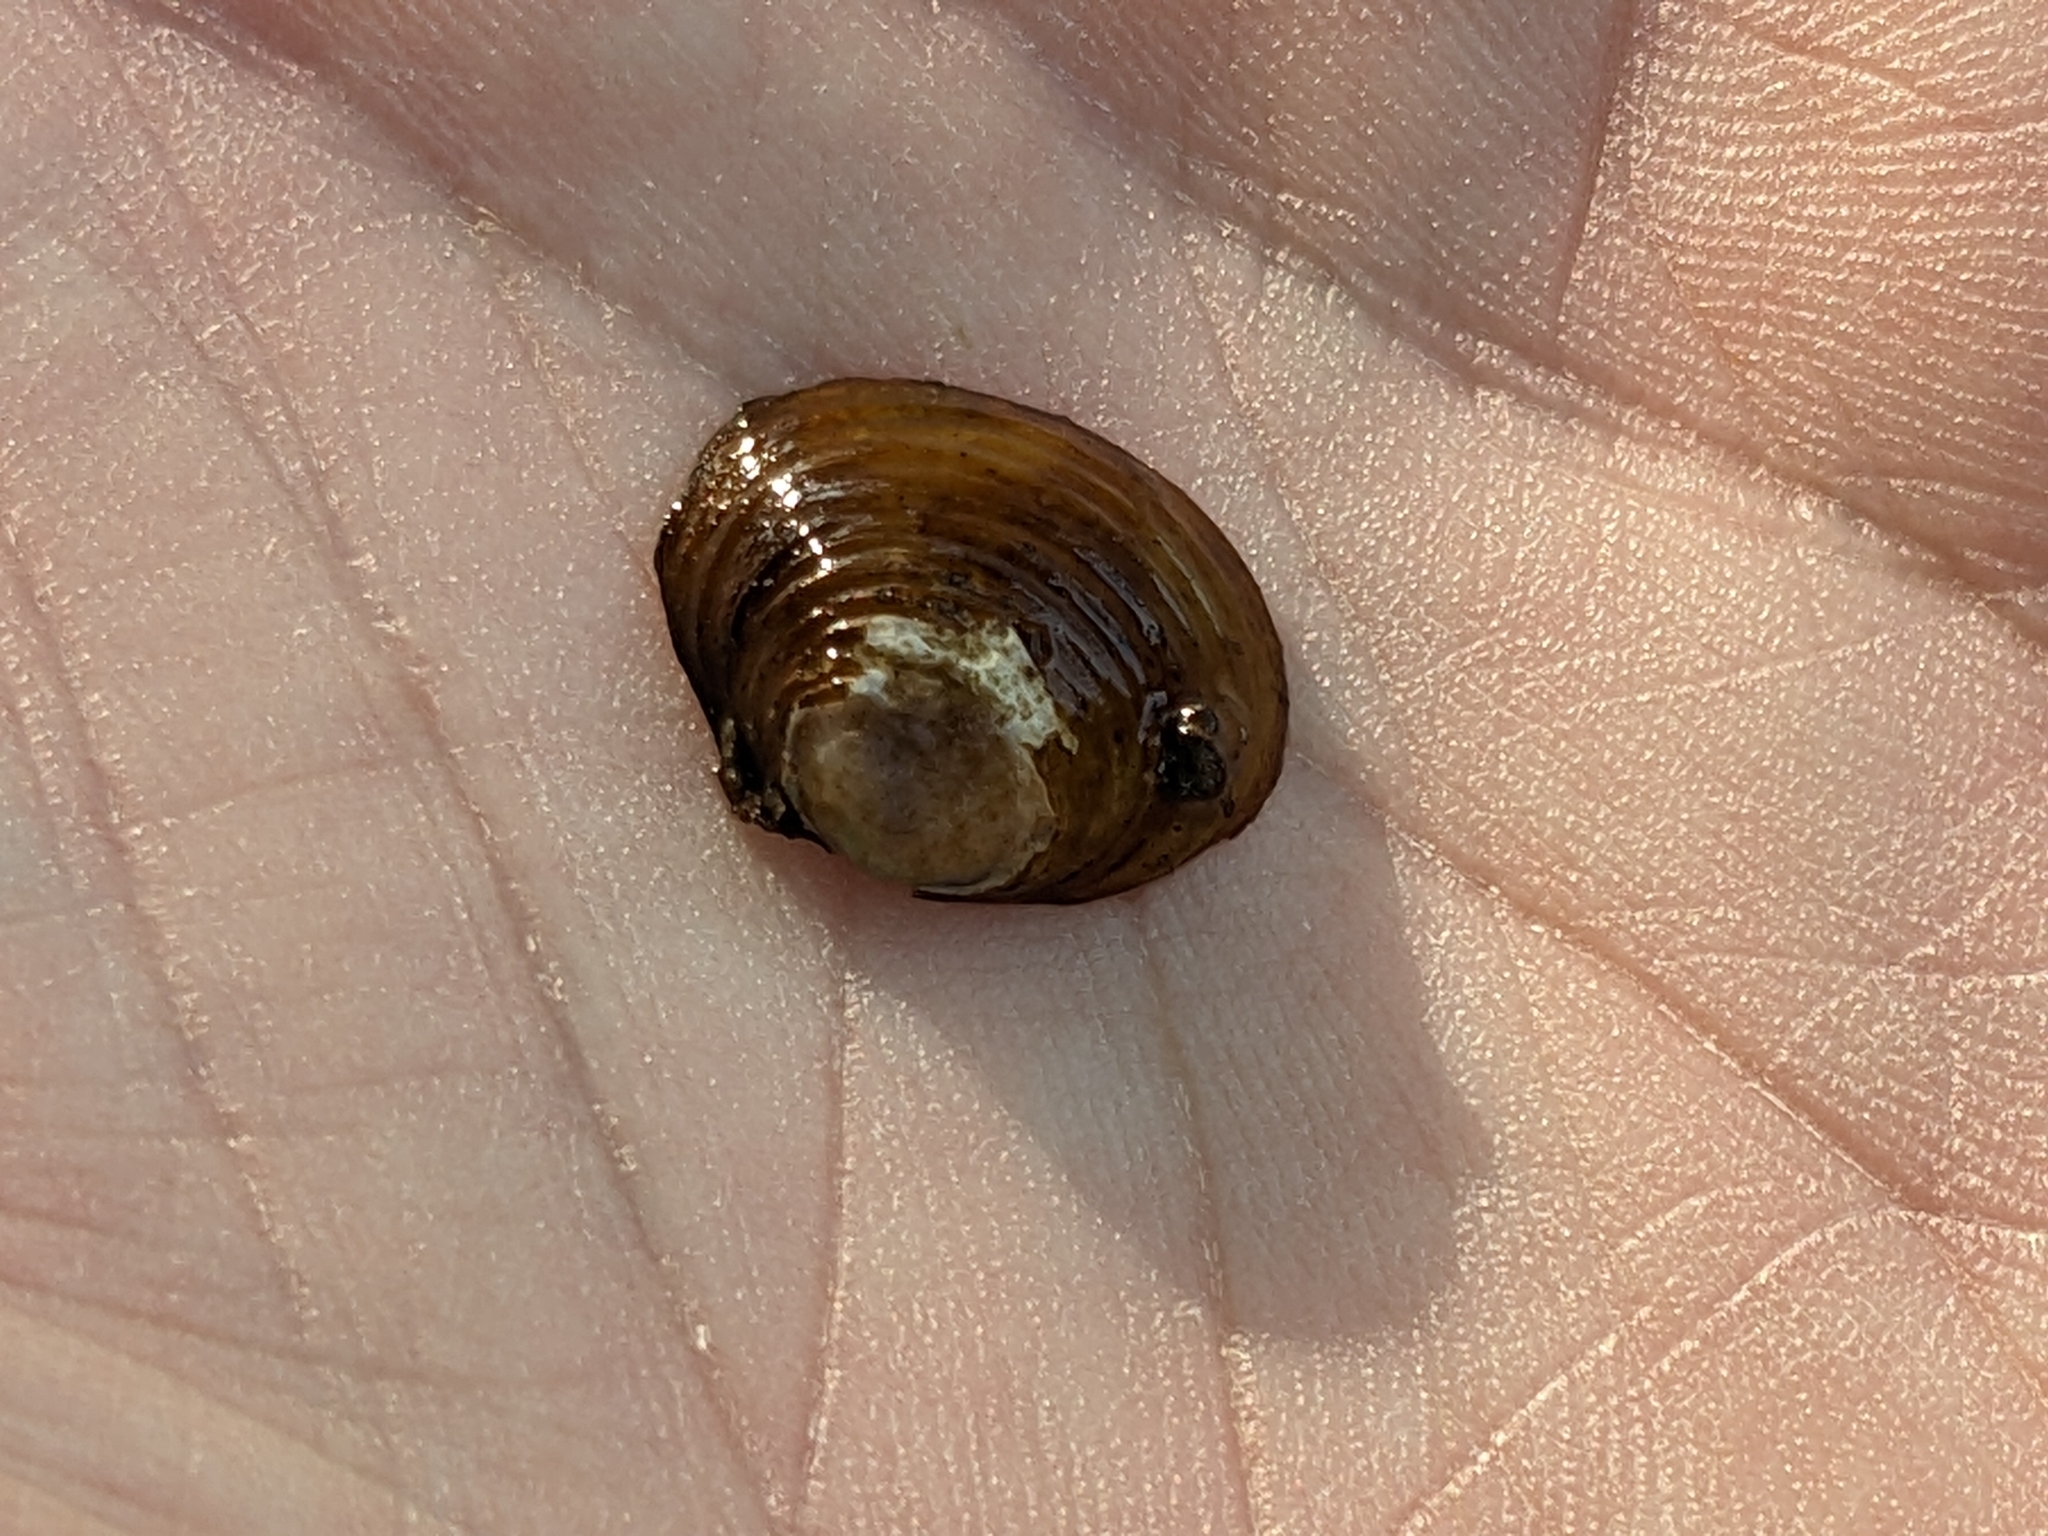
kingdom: Animalia
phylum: Mollusca
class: Bivalvia
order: Venerida
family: Cyrenidae
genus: Corbicula
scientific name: Corbicula fluminea
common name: Asian clam
